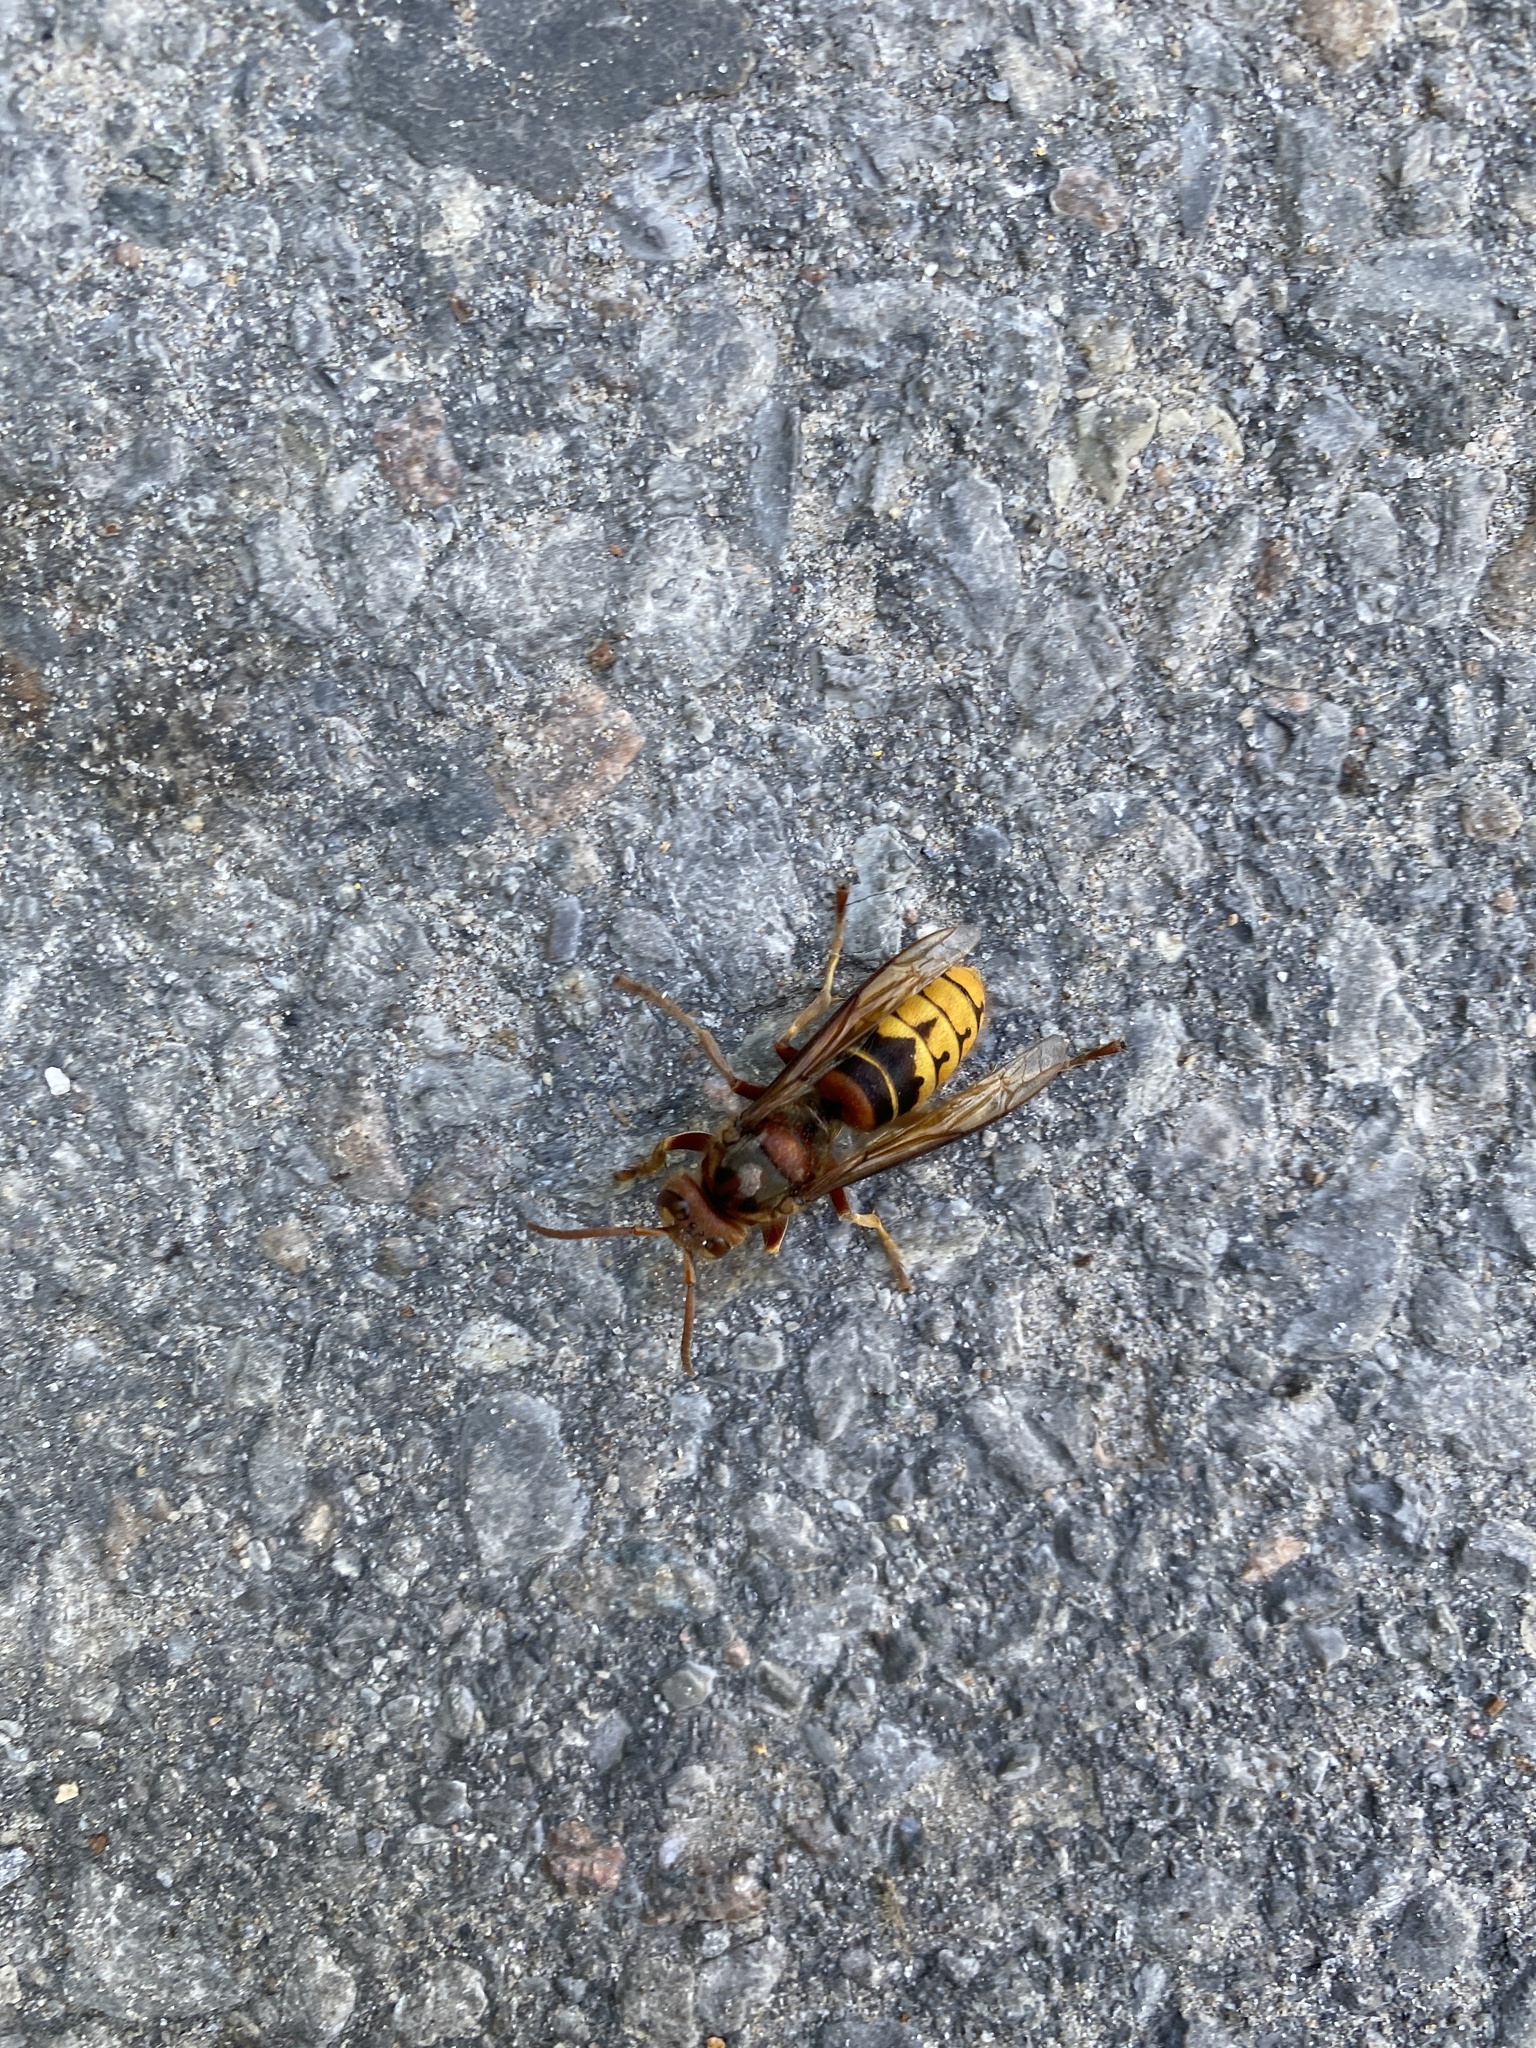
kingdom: Animalia
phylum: Arthropoda
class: Insecta
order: Hymenoptera
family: Vespidae
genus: Vespa
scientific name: Vespa crabro
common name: Hornet
